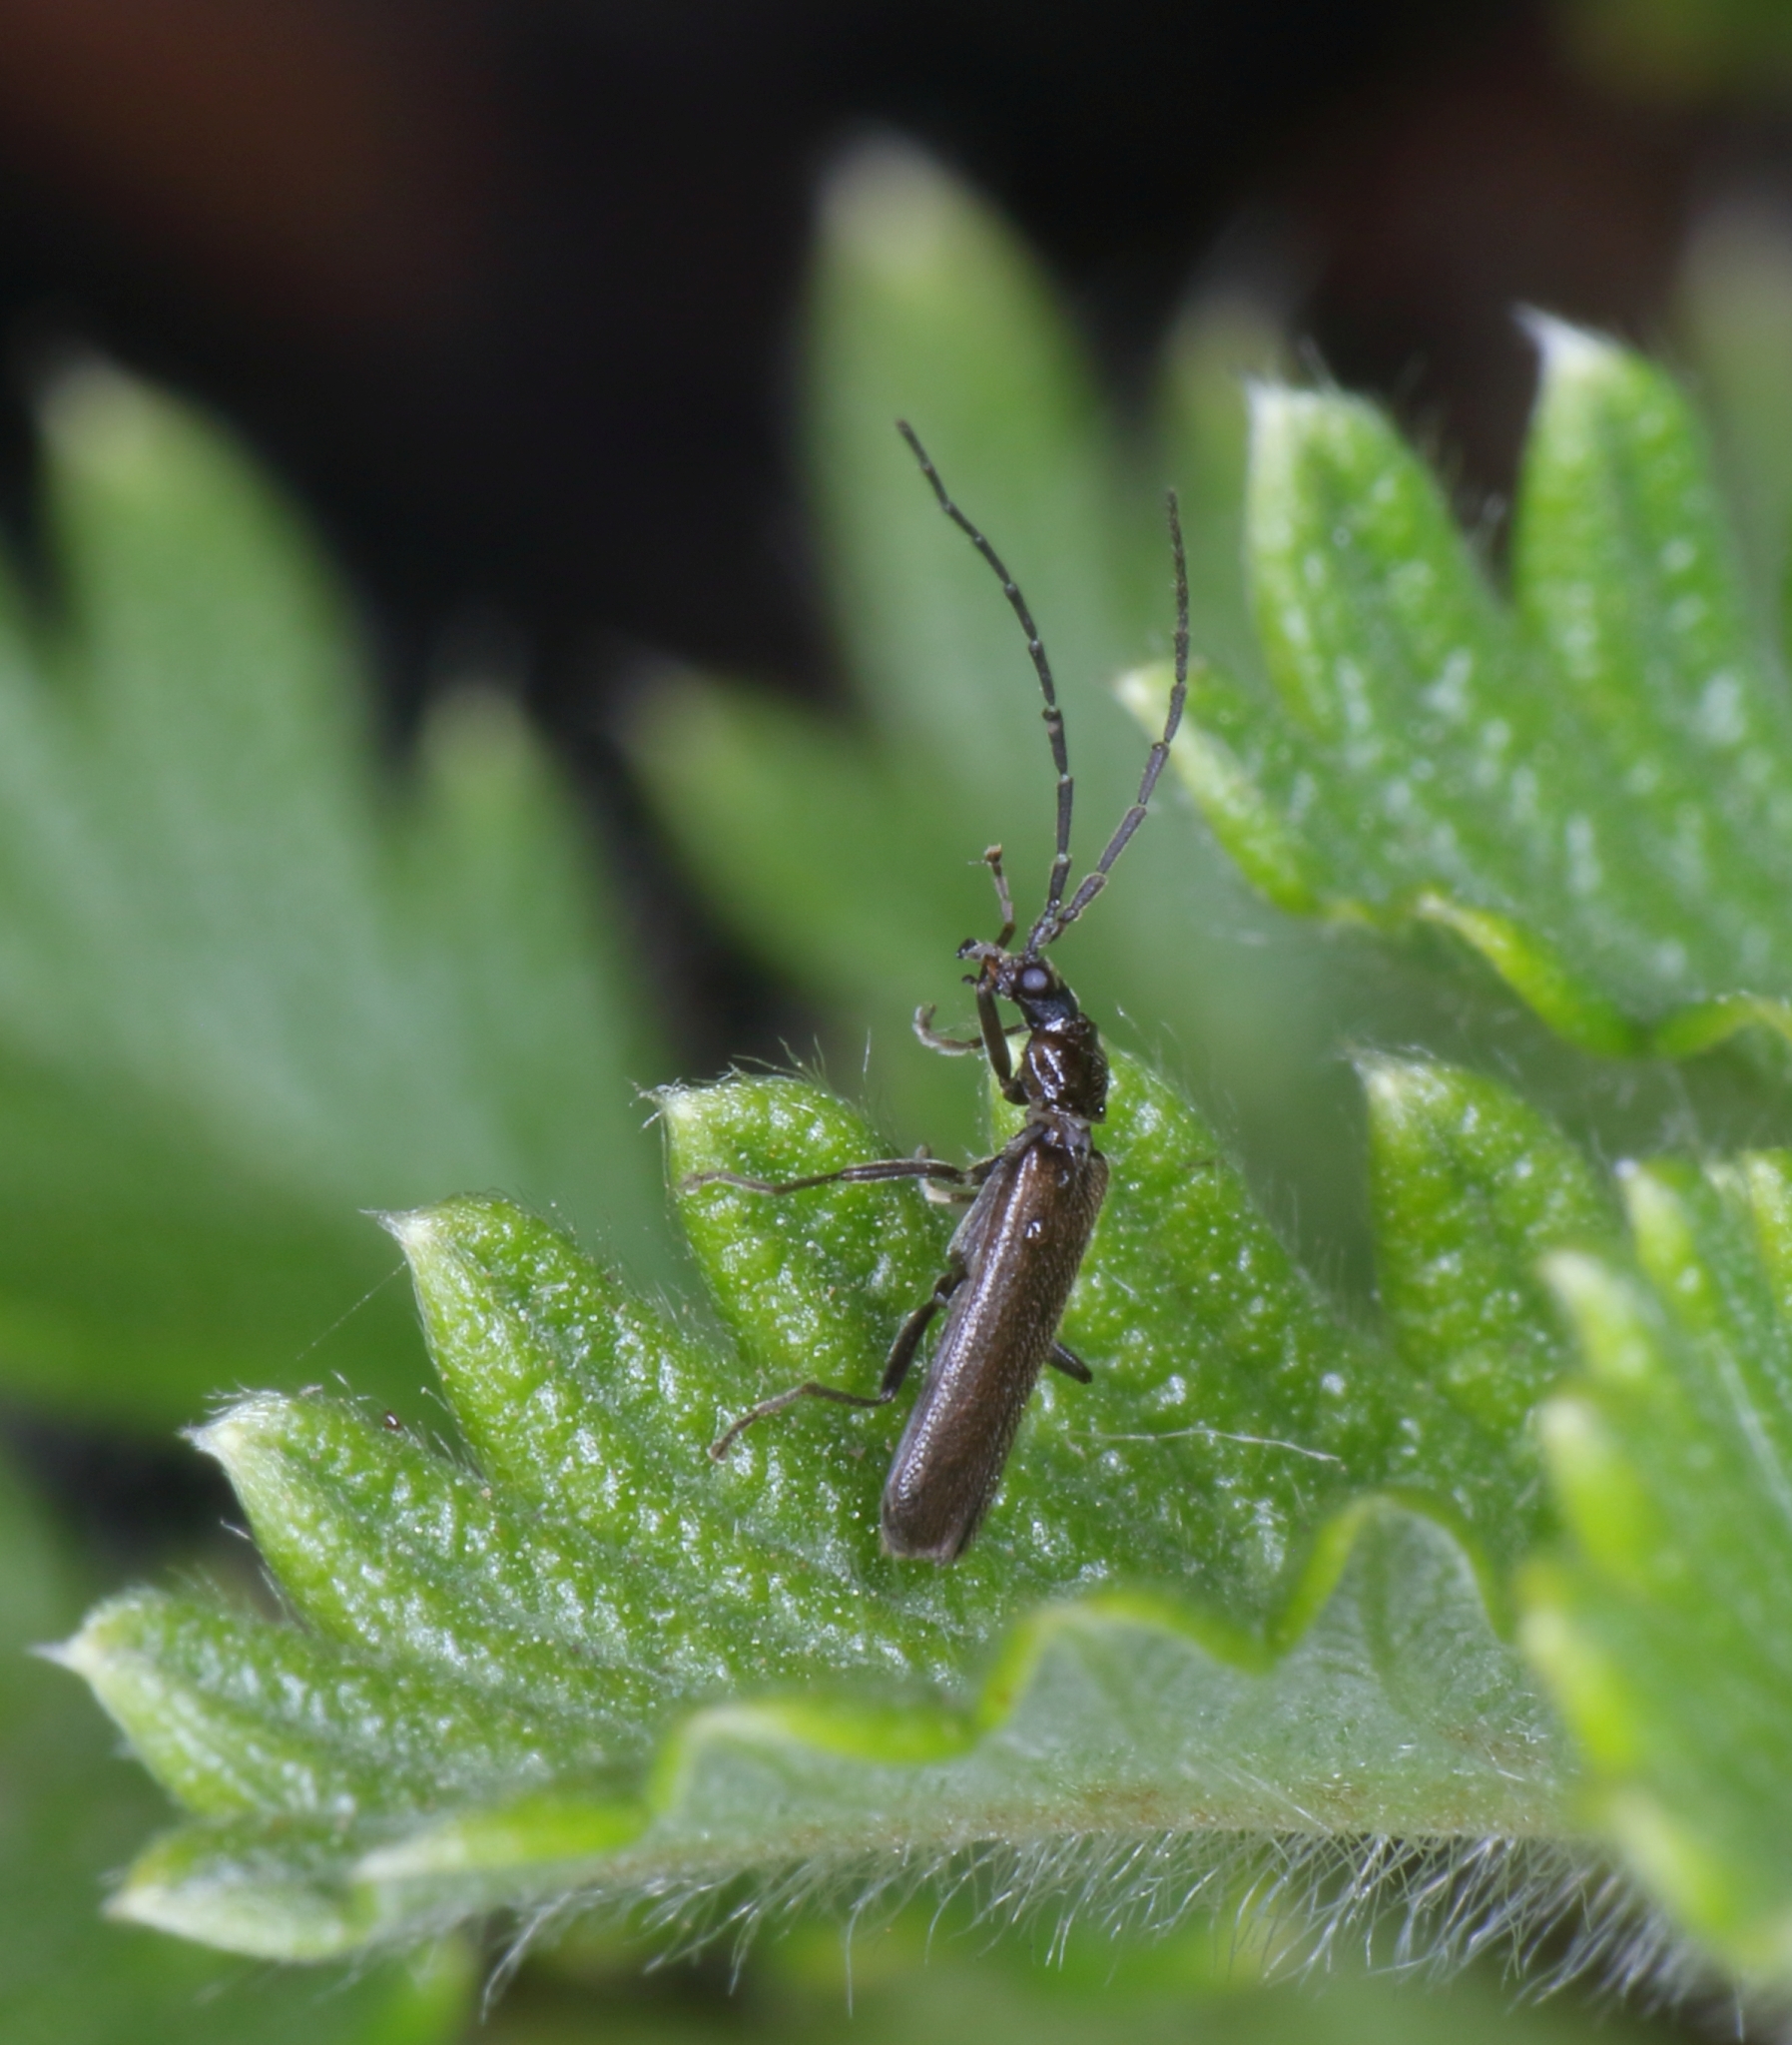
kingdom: Plantae
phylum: Tracheophyta
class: Magnoliopsida
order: Rosales
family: Rosaceae
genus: Leucosidea
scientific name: Leucosidea sericea
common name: Oldwood
